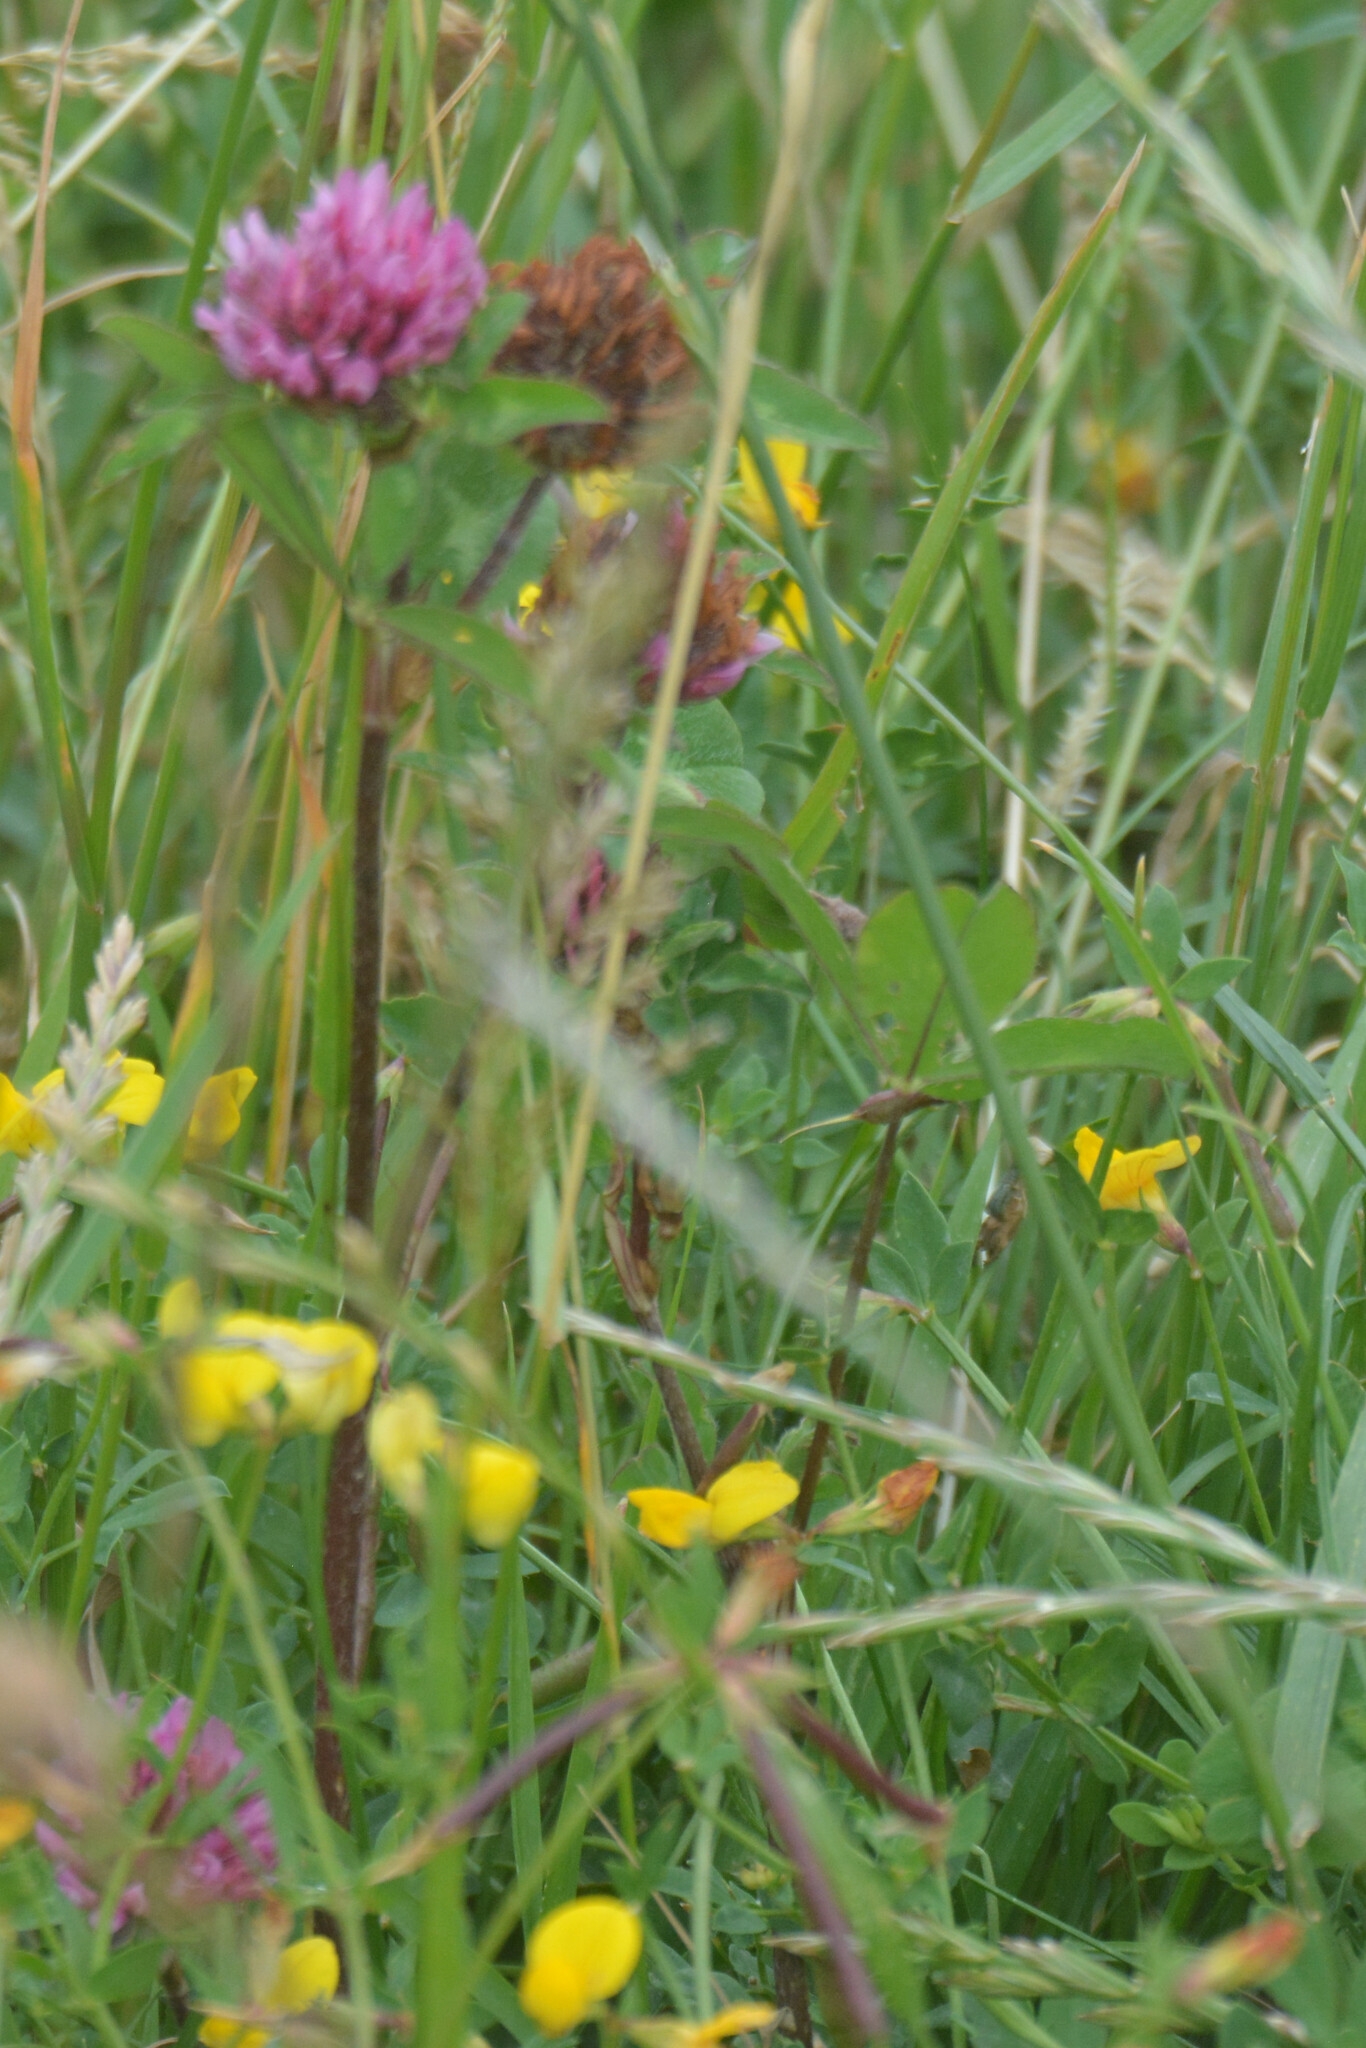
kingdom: Plantae
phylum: Tracheophyta
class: Magnoliopsida
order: Fabales
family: Fabaceae
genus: Trifolium
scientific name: Trifolium pratense
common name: Red clover
